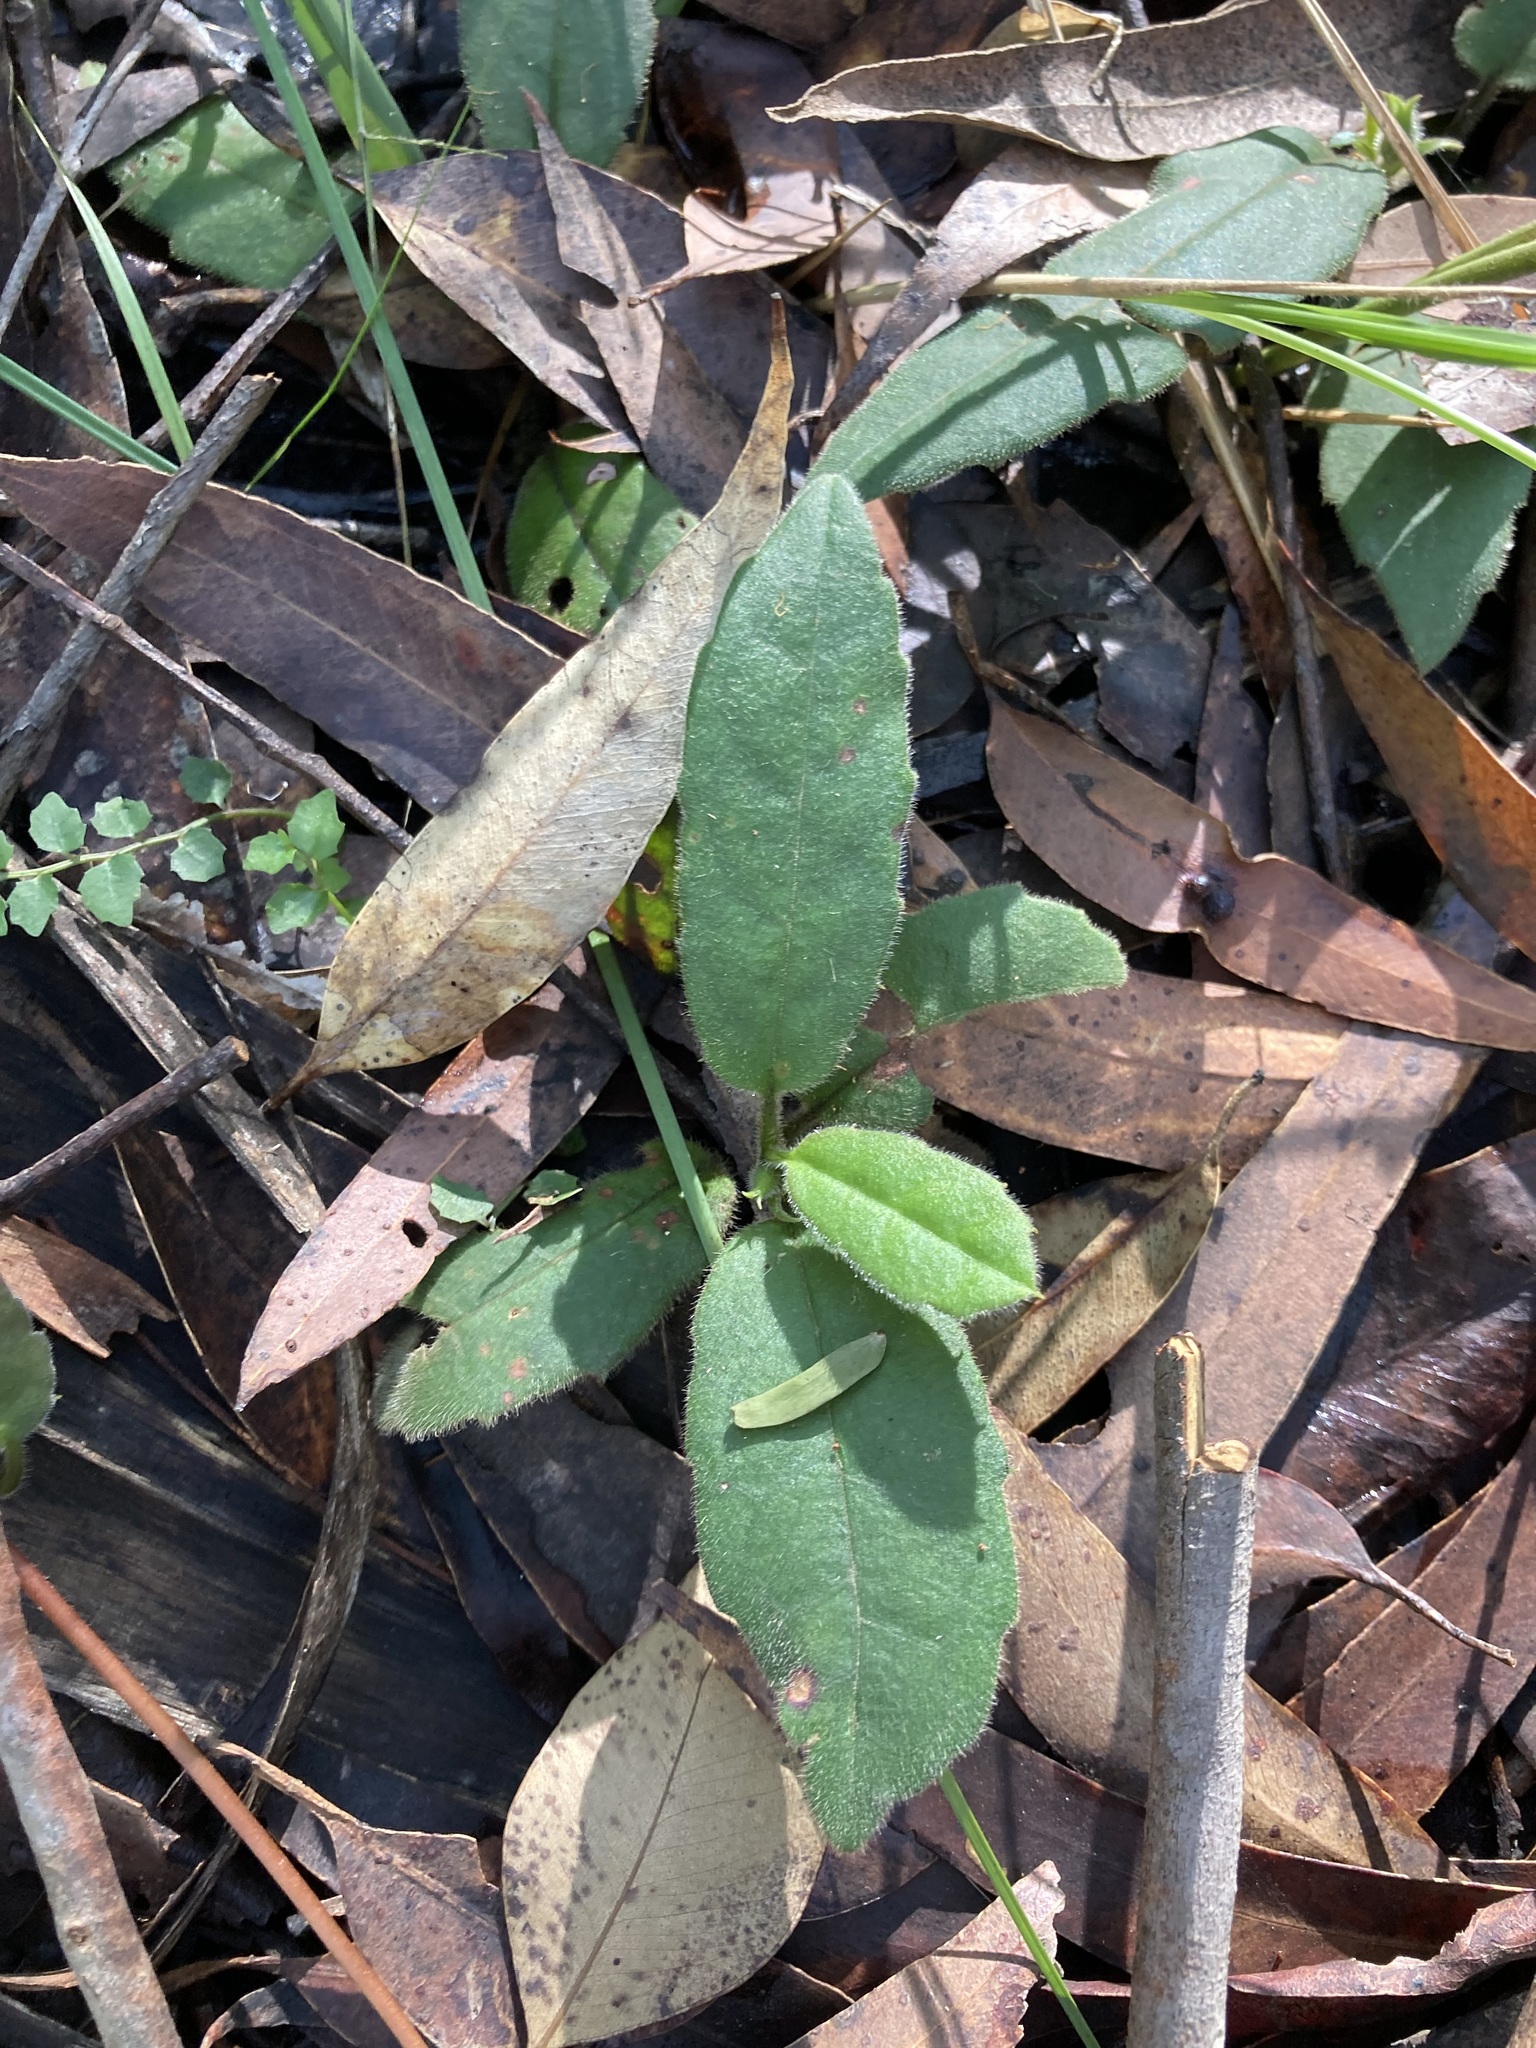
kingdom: Plantae
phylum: Tracheophyta
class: Magnoliopsida
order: Dilleniales
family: Dilleniaceae
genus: Hibbertia
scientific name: Hibbertia dentata
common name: Trailing guinea-flower
